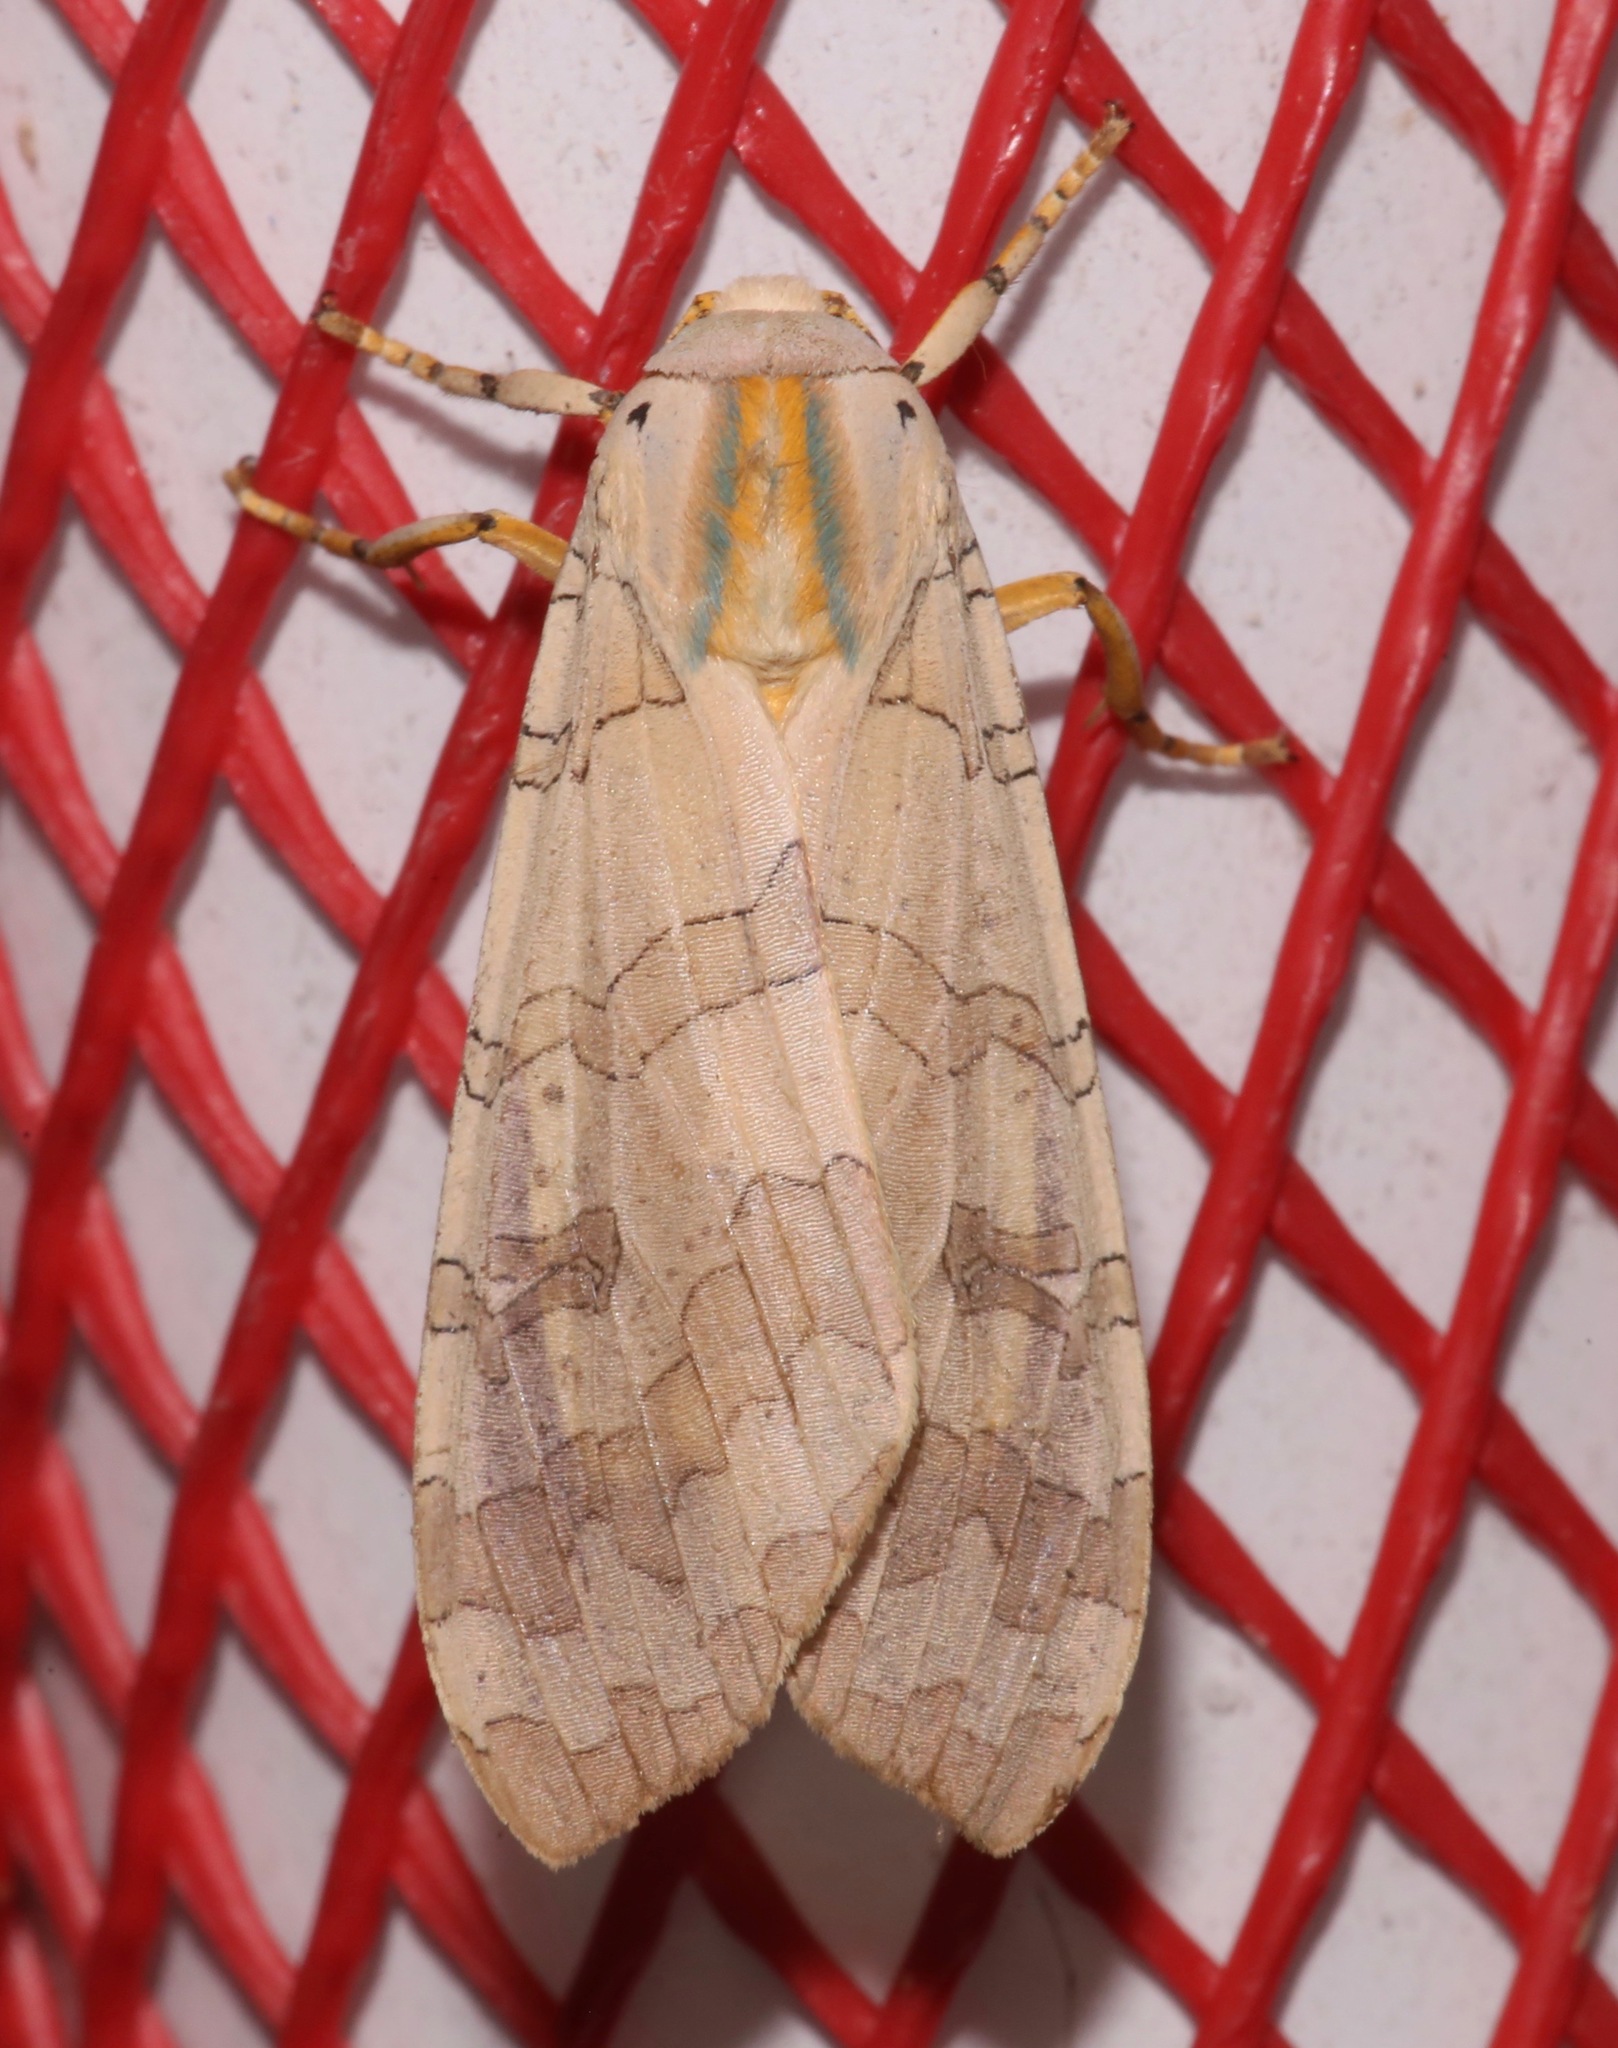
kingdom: Animalia
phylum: Arthropoda
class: Insecta
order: Lepidoptera
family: Erebidae
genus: Halysidota
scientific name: Halysidota
